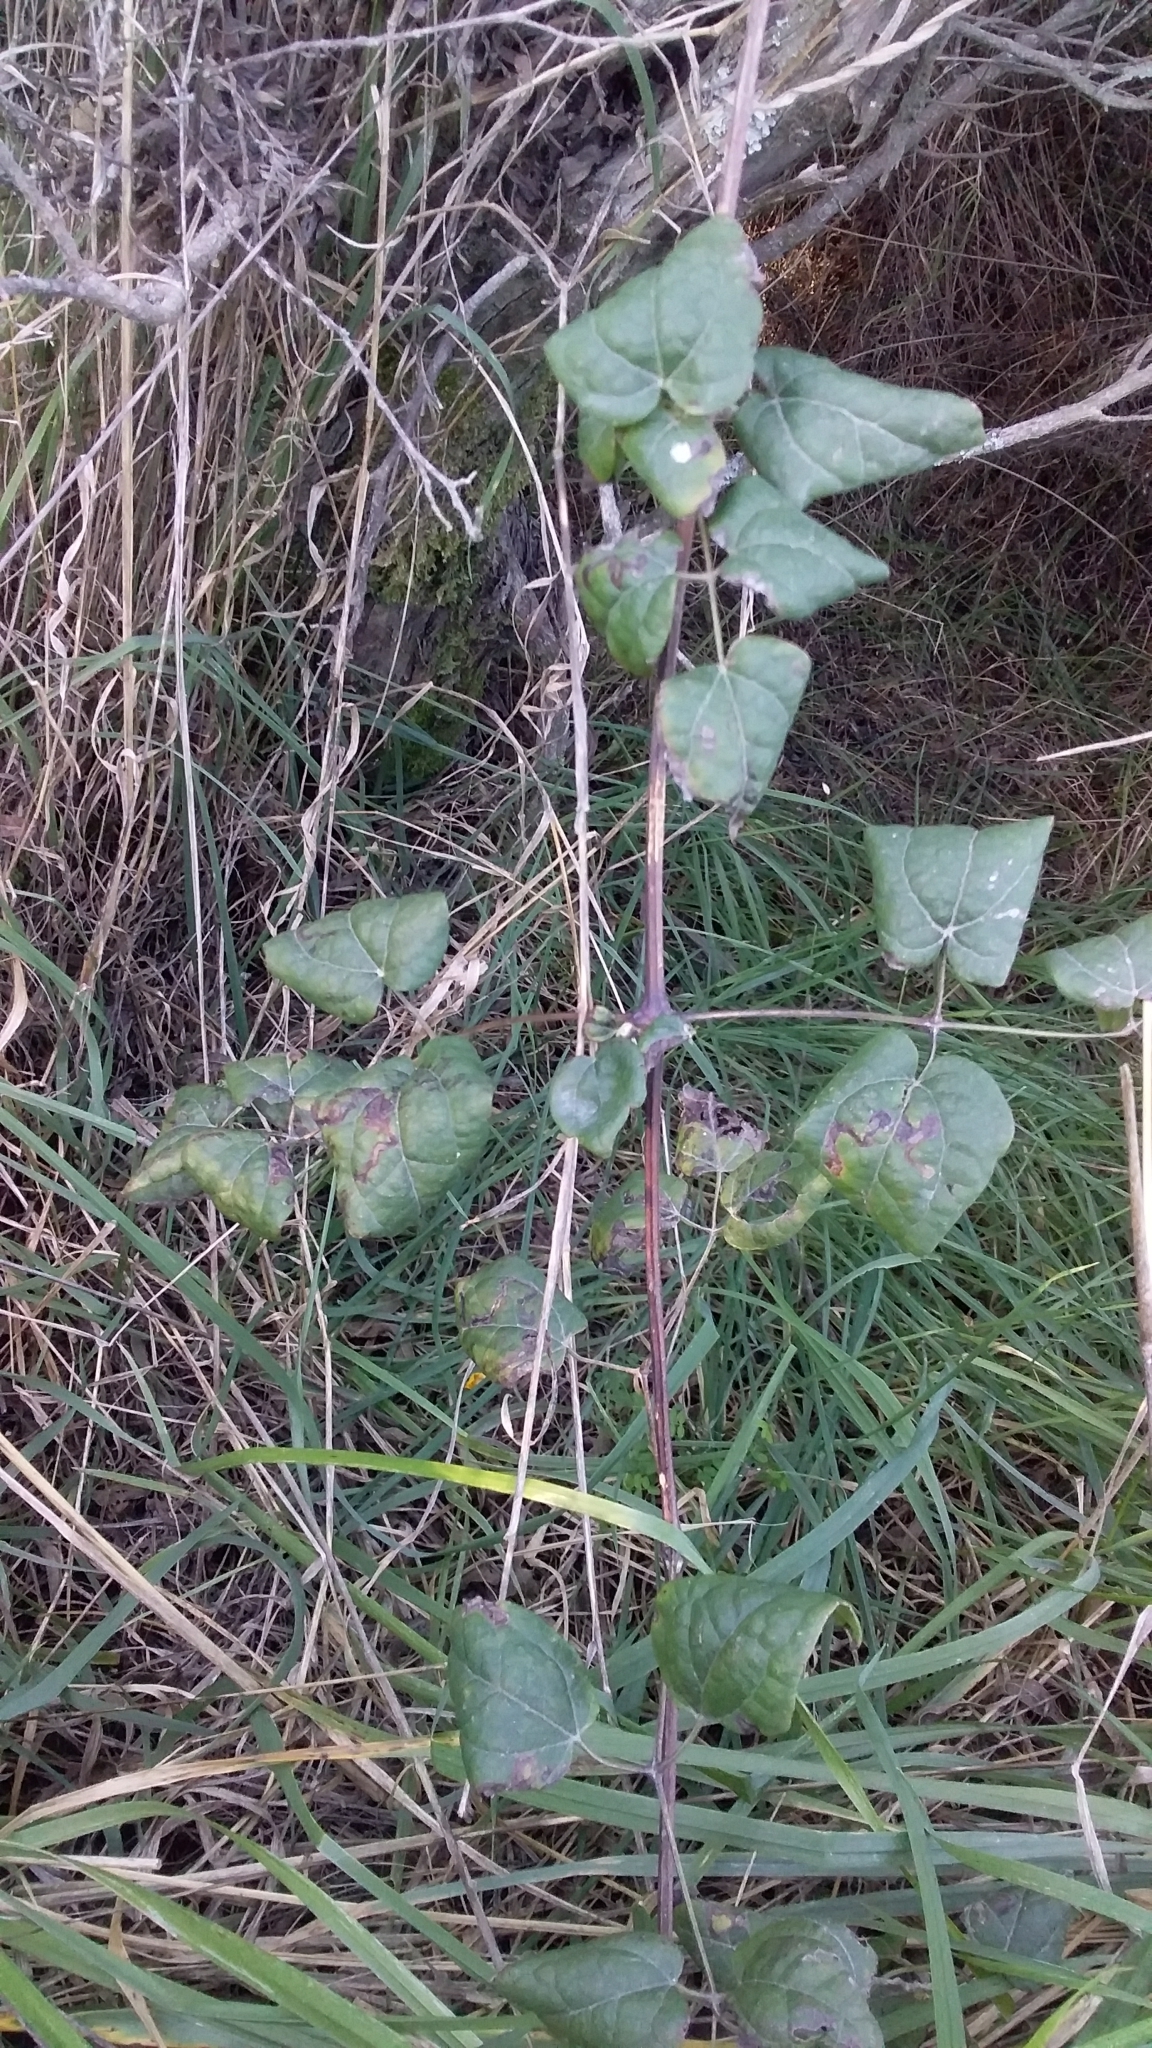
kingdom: Plantae
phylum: Tracheophyta
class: Magnoliopsida
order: Ranunculales
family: Ranunculaceae
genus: Clematis
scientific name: Clematis vitalba
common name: Evergreen clematis
